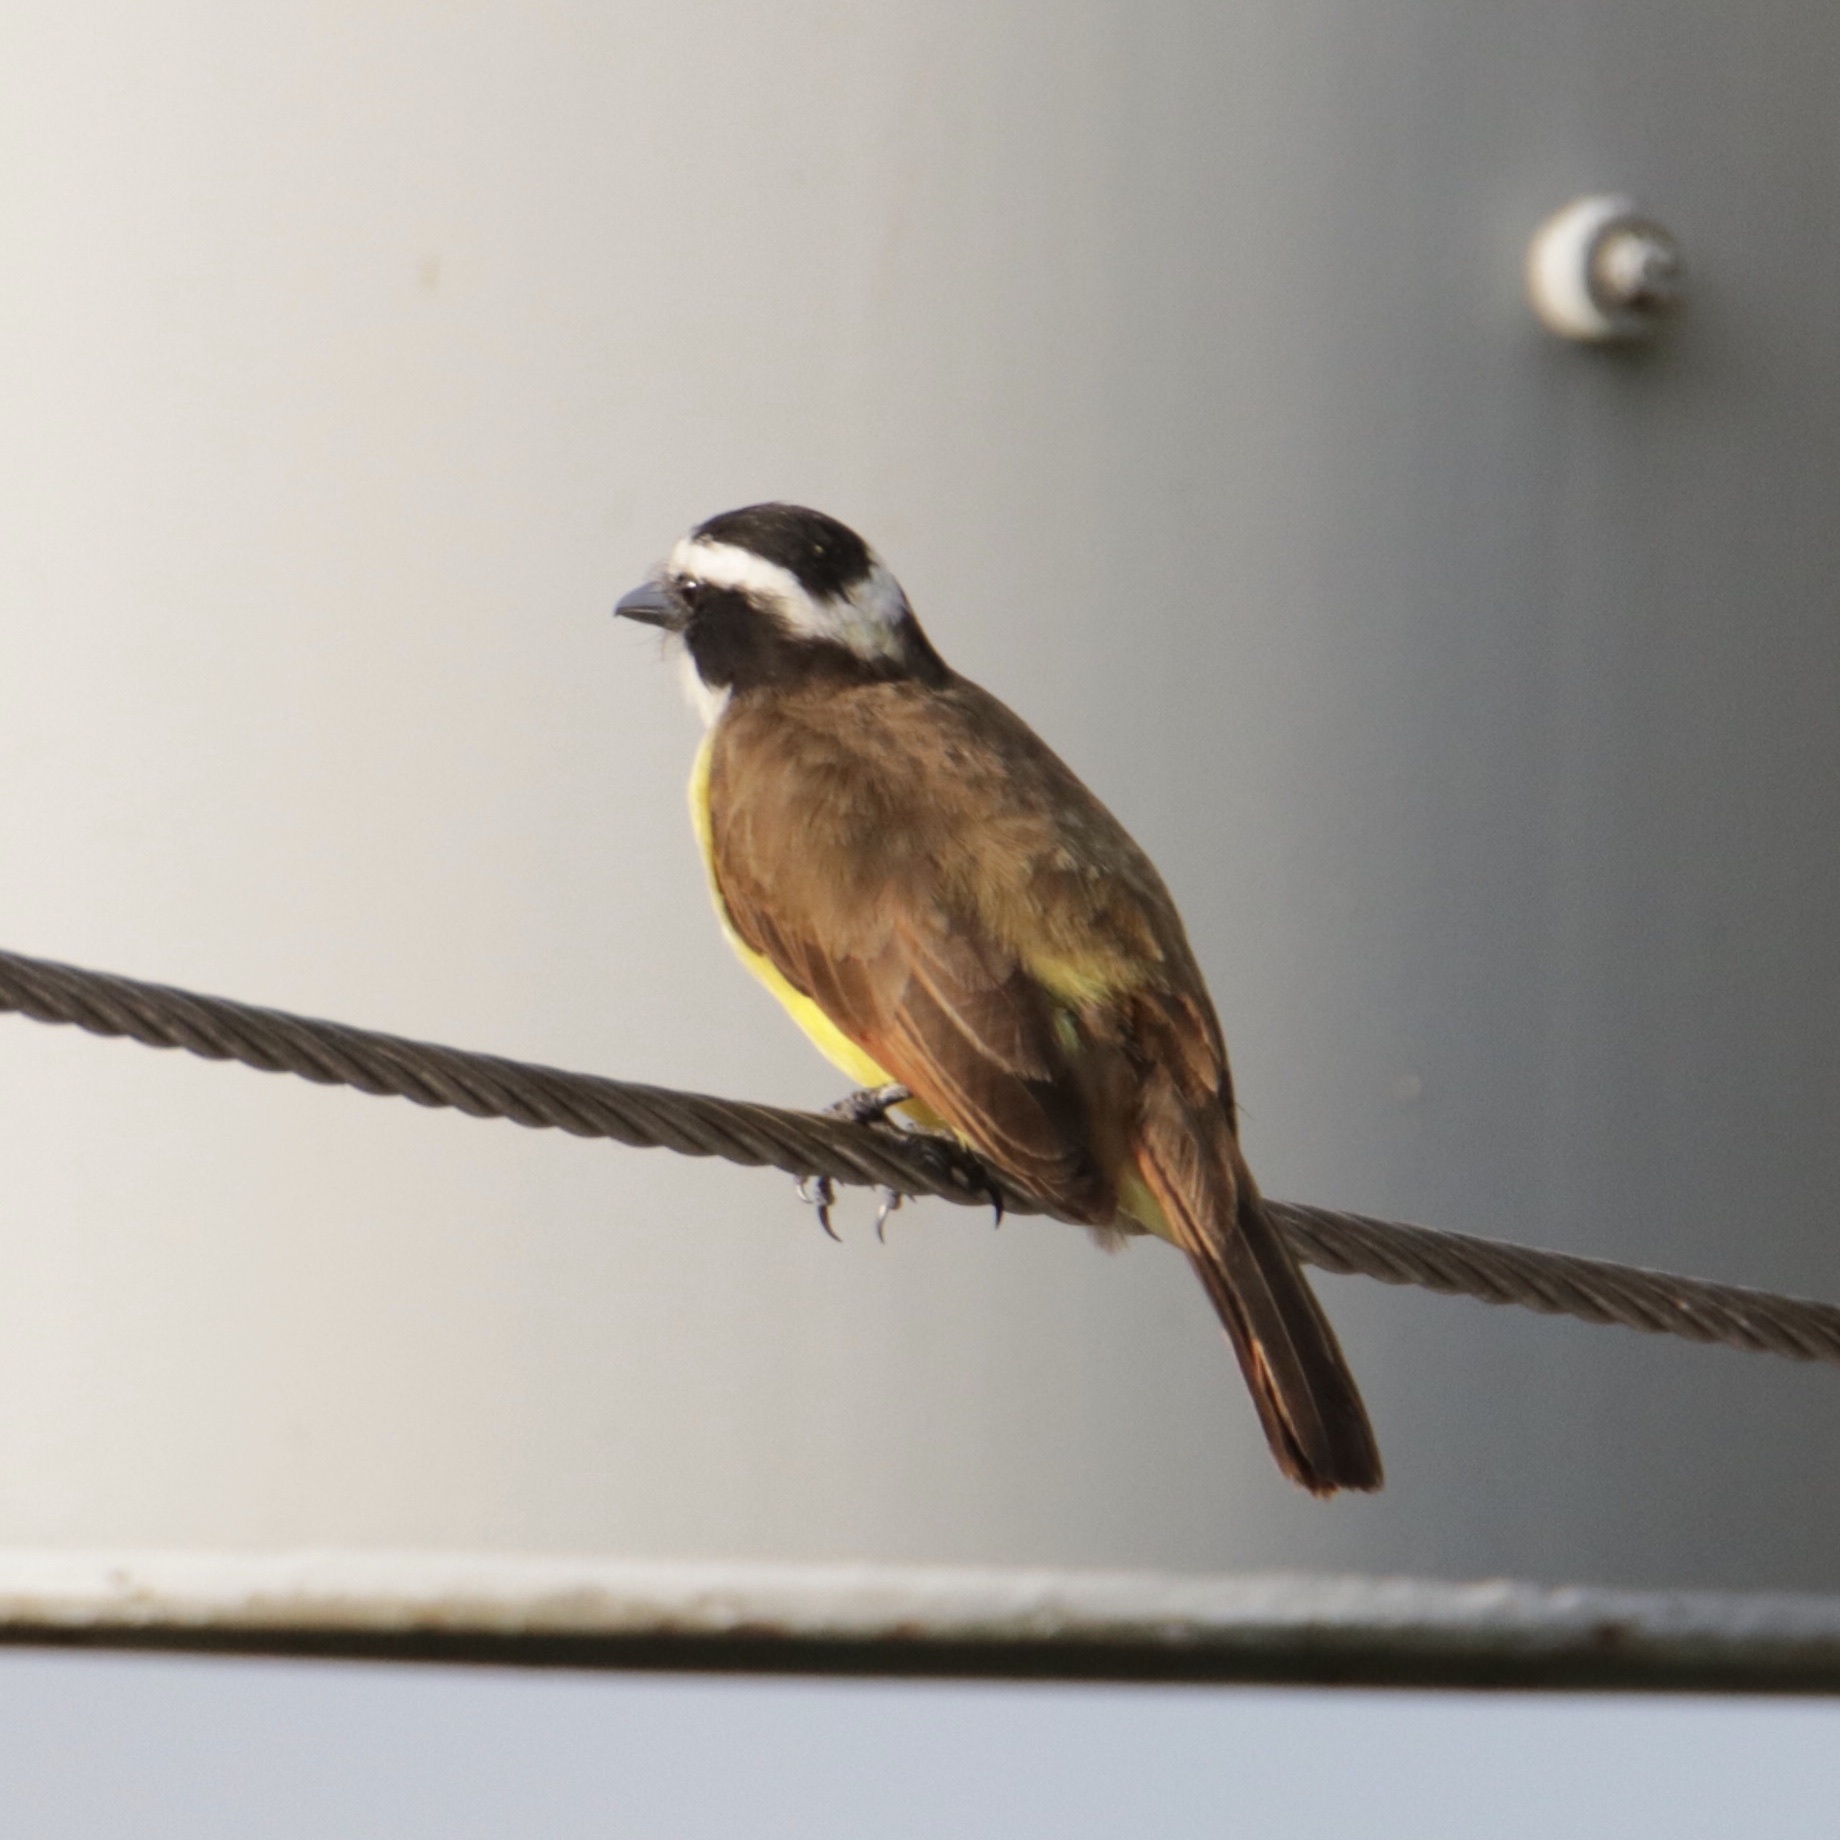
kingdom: Animalia
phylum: Chordata
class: Aves
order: Passeriformes
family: Tyrannidae
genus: Pitangus
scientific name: Pitangus sulphuratus
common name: Great kiskadee
